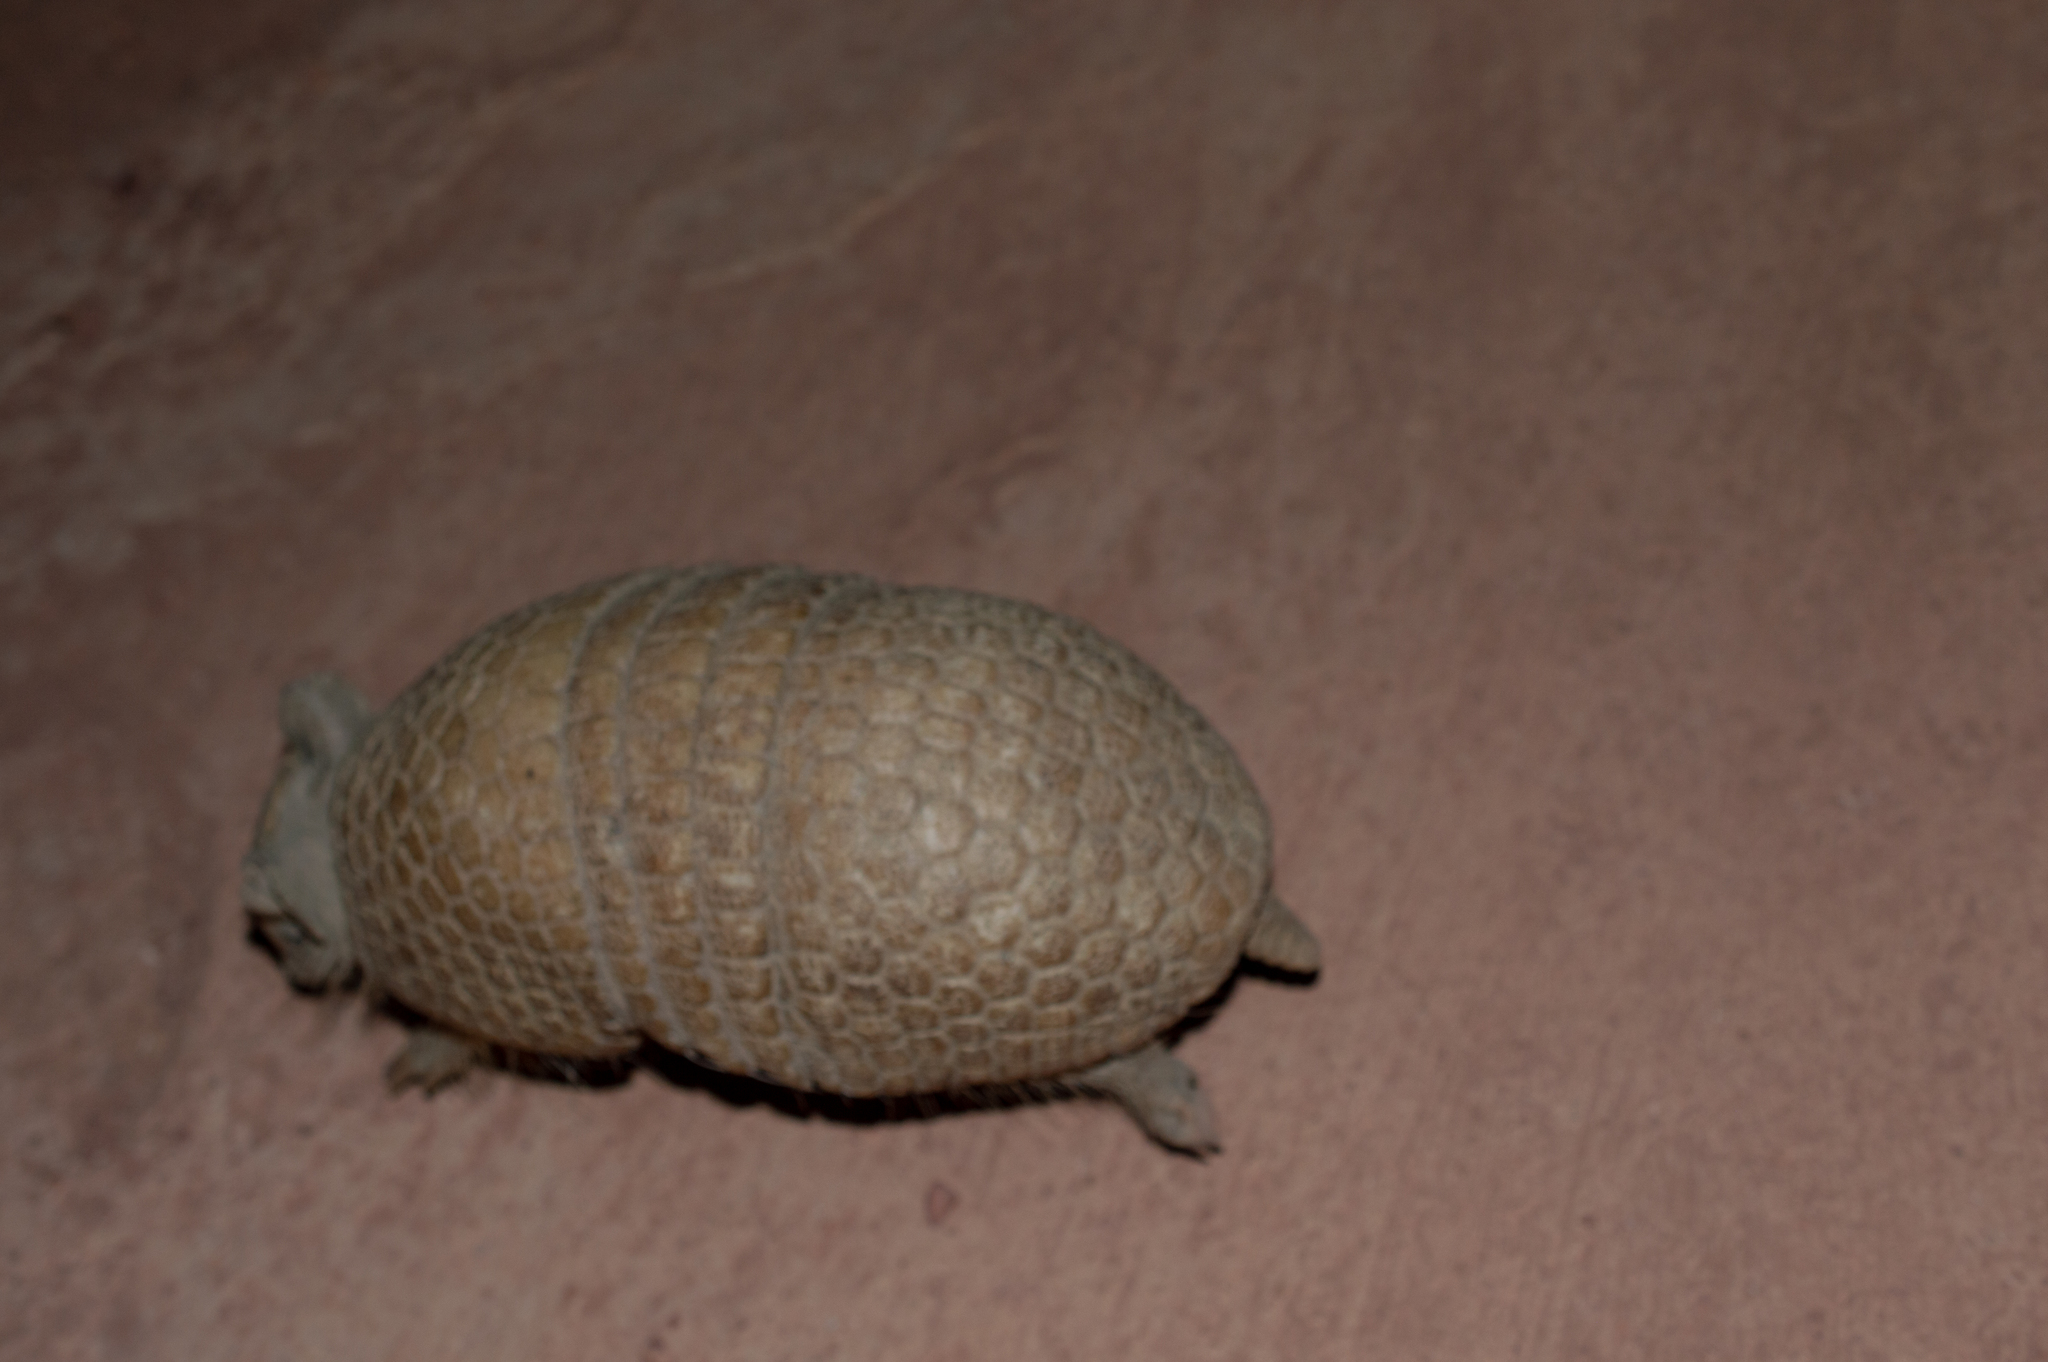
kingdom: Animalia
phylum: Chordata
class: Mammalia
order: Cingulata
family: Dasypodidae
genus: Tolypeutes
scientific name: Tolypeutes tricinctus
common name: Brazilian three-banded armadillo
